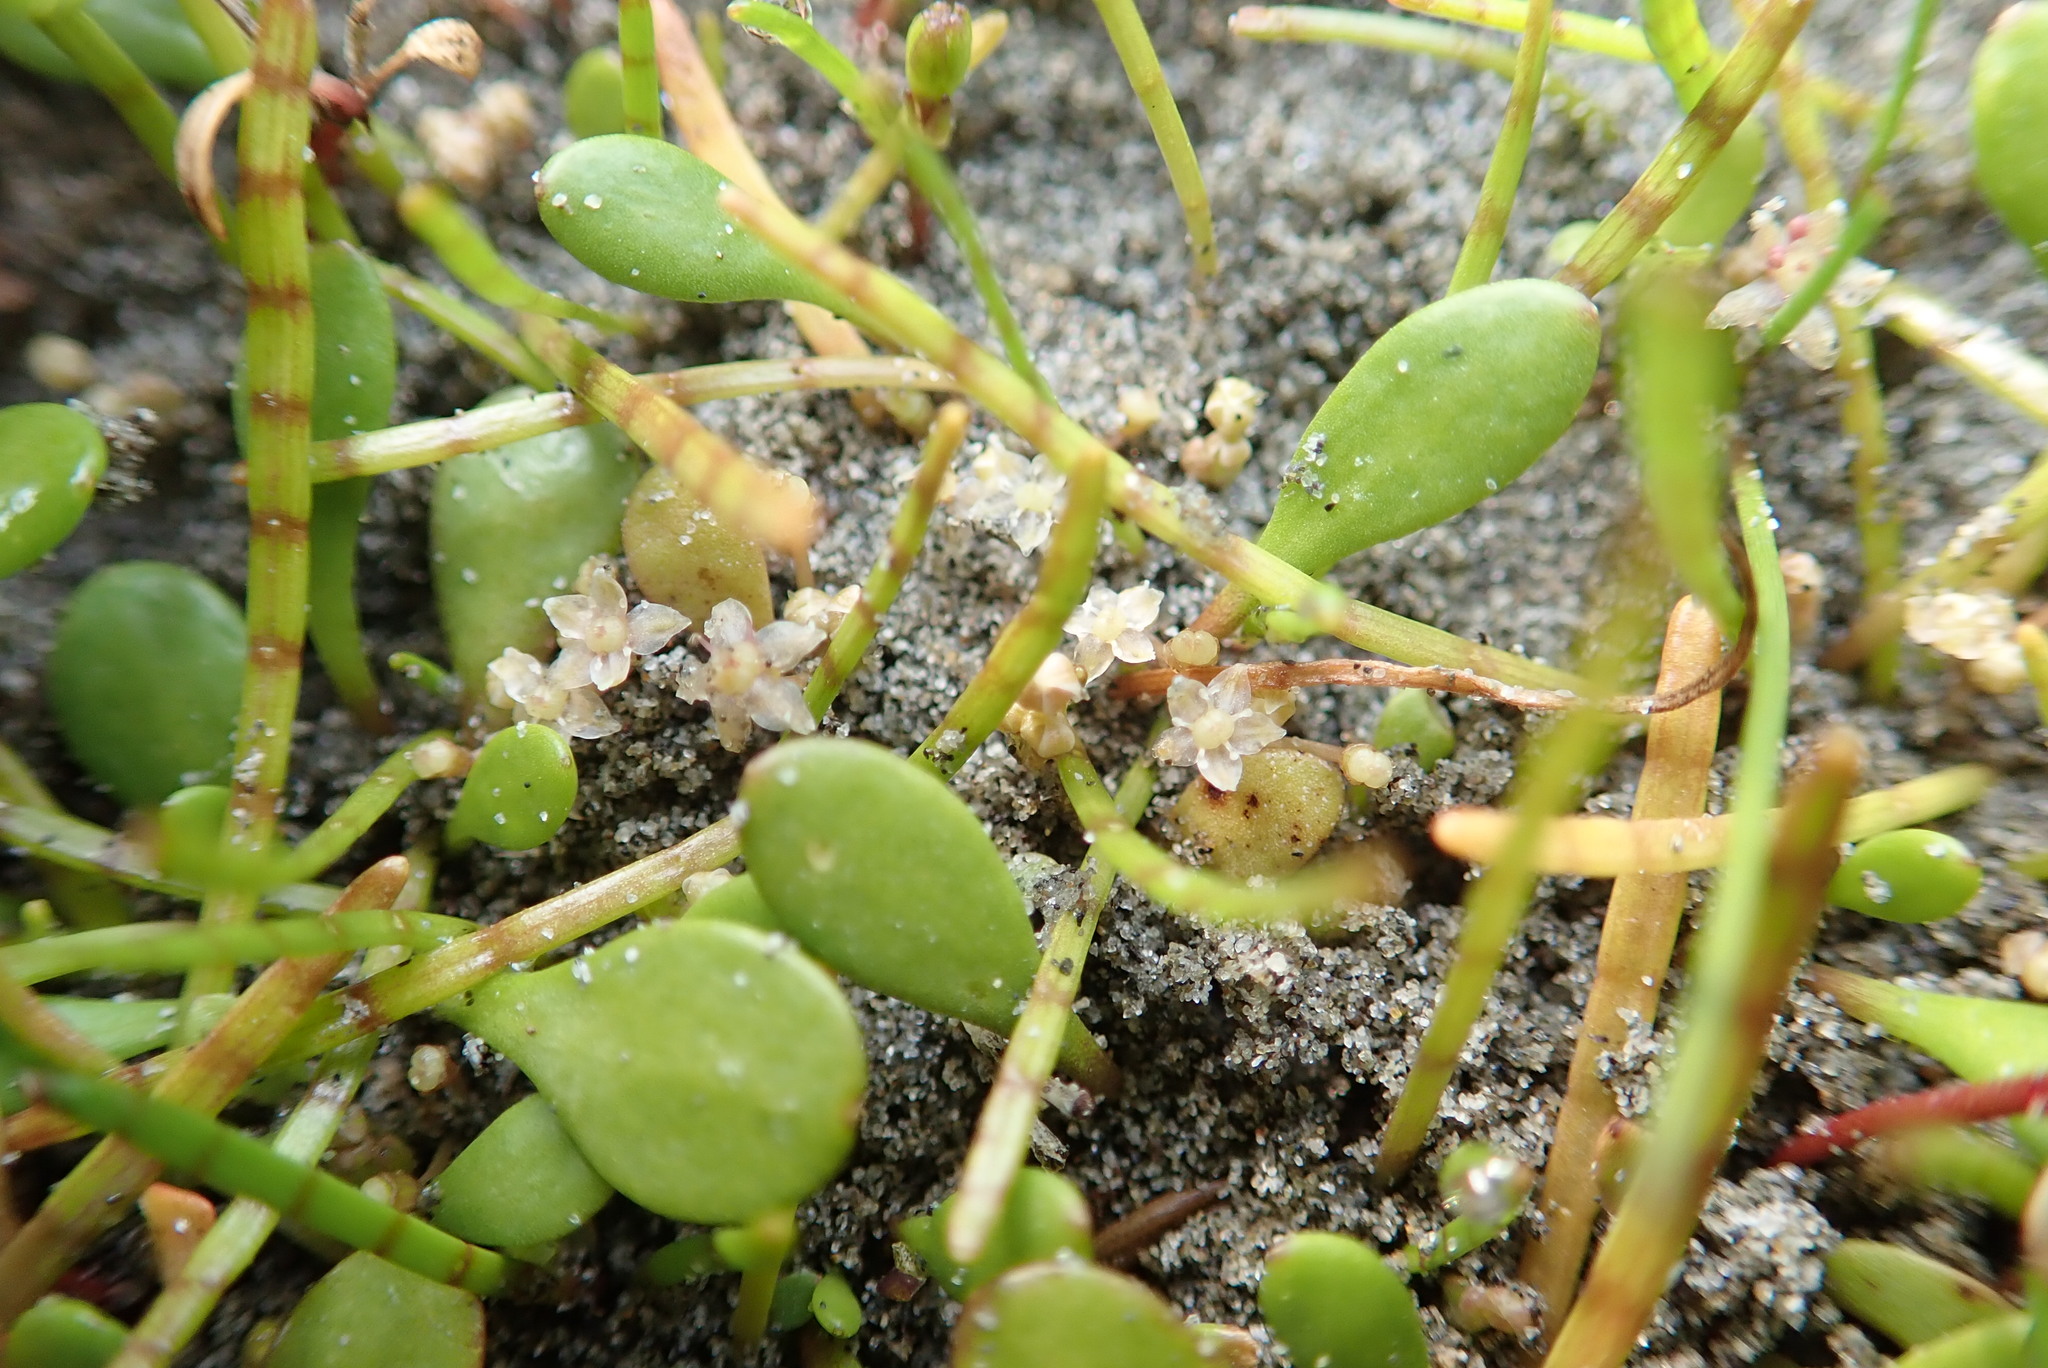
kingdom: Plantae
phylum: Tracheophyta
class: Magnoliopsida
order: Apiales
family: Apiaceae
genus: Lilaeopsis
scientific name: Lilaeopsis novae-zelandiae
